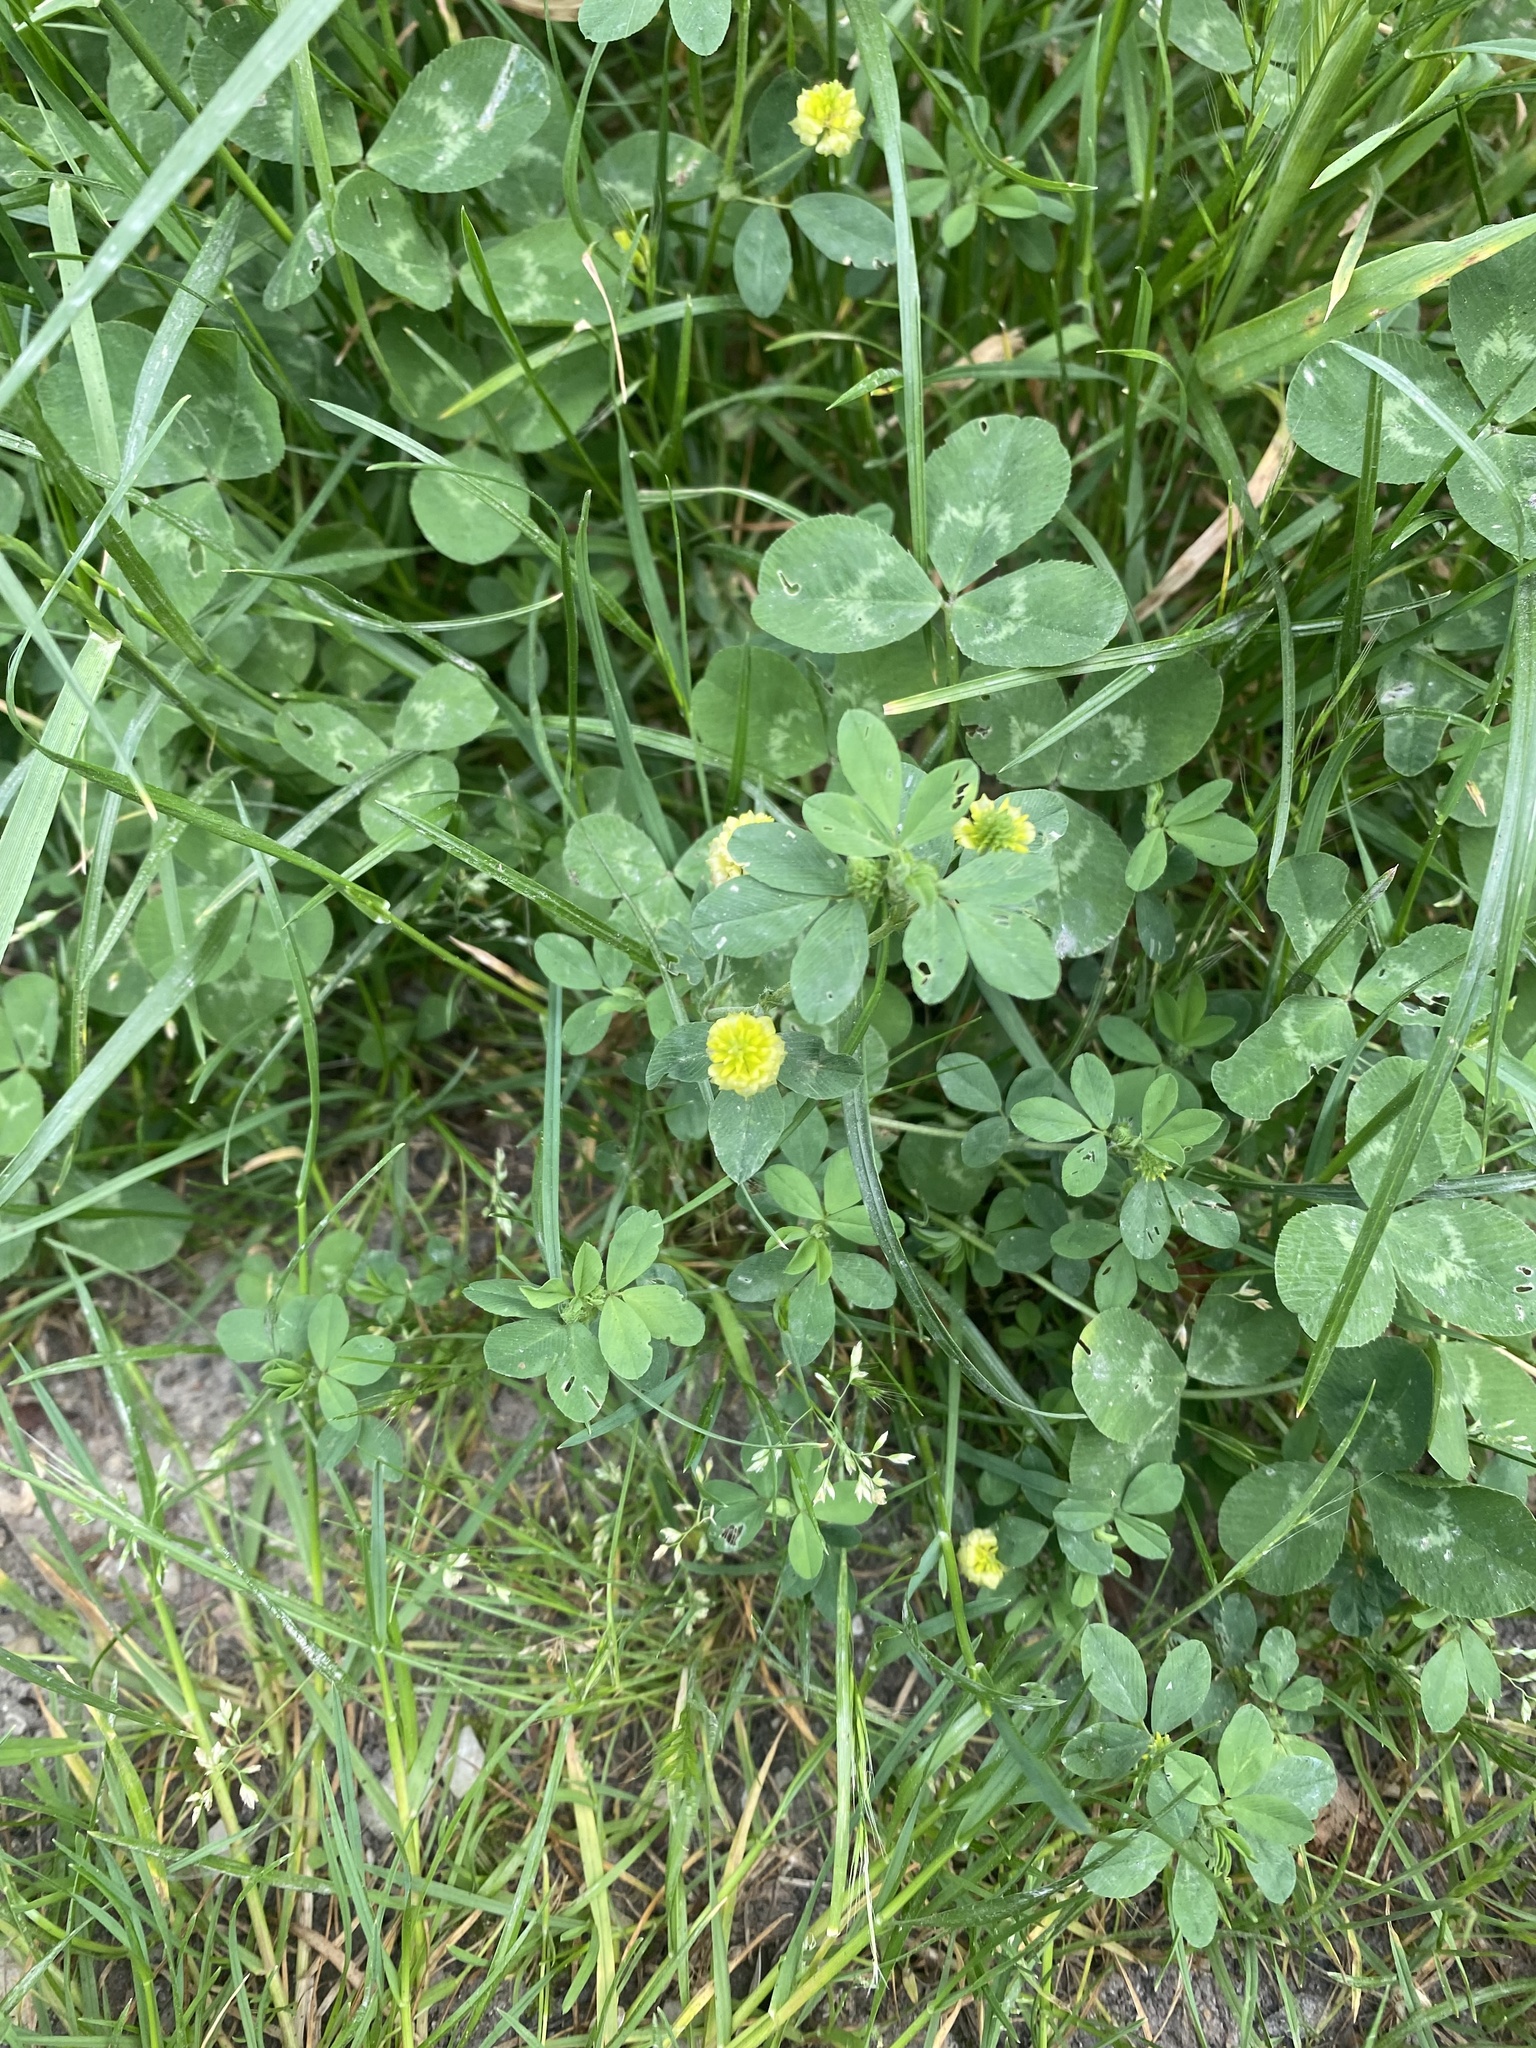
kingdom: Plantae
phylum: Tracheophyta
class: Magnoliopsida
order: Fabales
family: Fabaceae
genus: Trifolium
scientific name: Trifolium campestre
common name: Field clover
